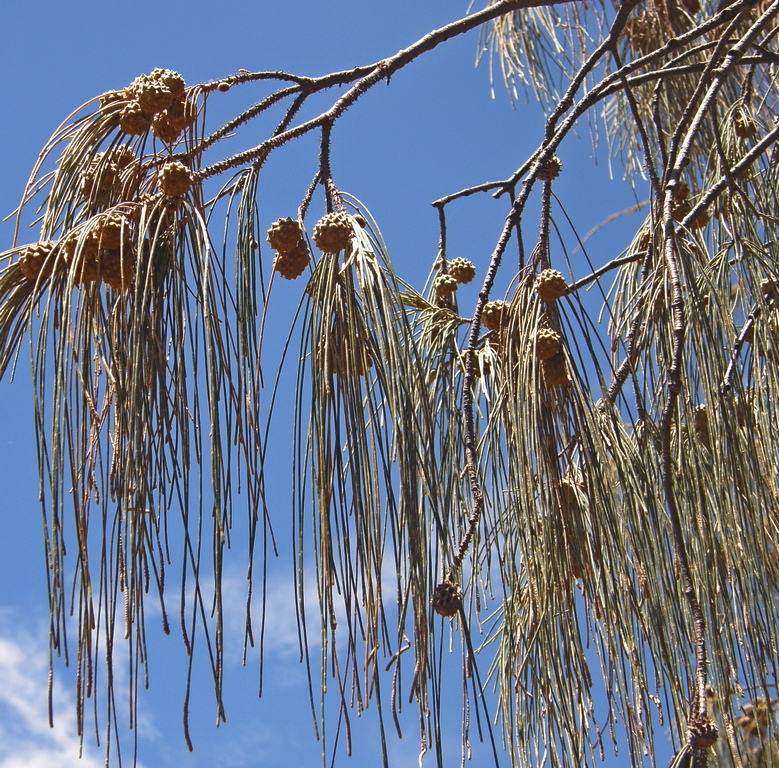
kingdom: Plantae
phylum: Tracheophyta
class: Magnoliopsida
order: Fagales
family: Casuarinaceae
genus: Casuarina
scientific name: Casuarina equisetifolia
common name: Beach sheoak
